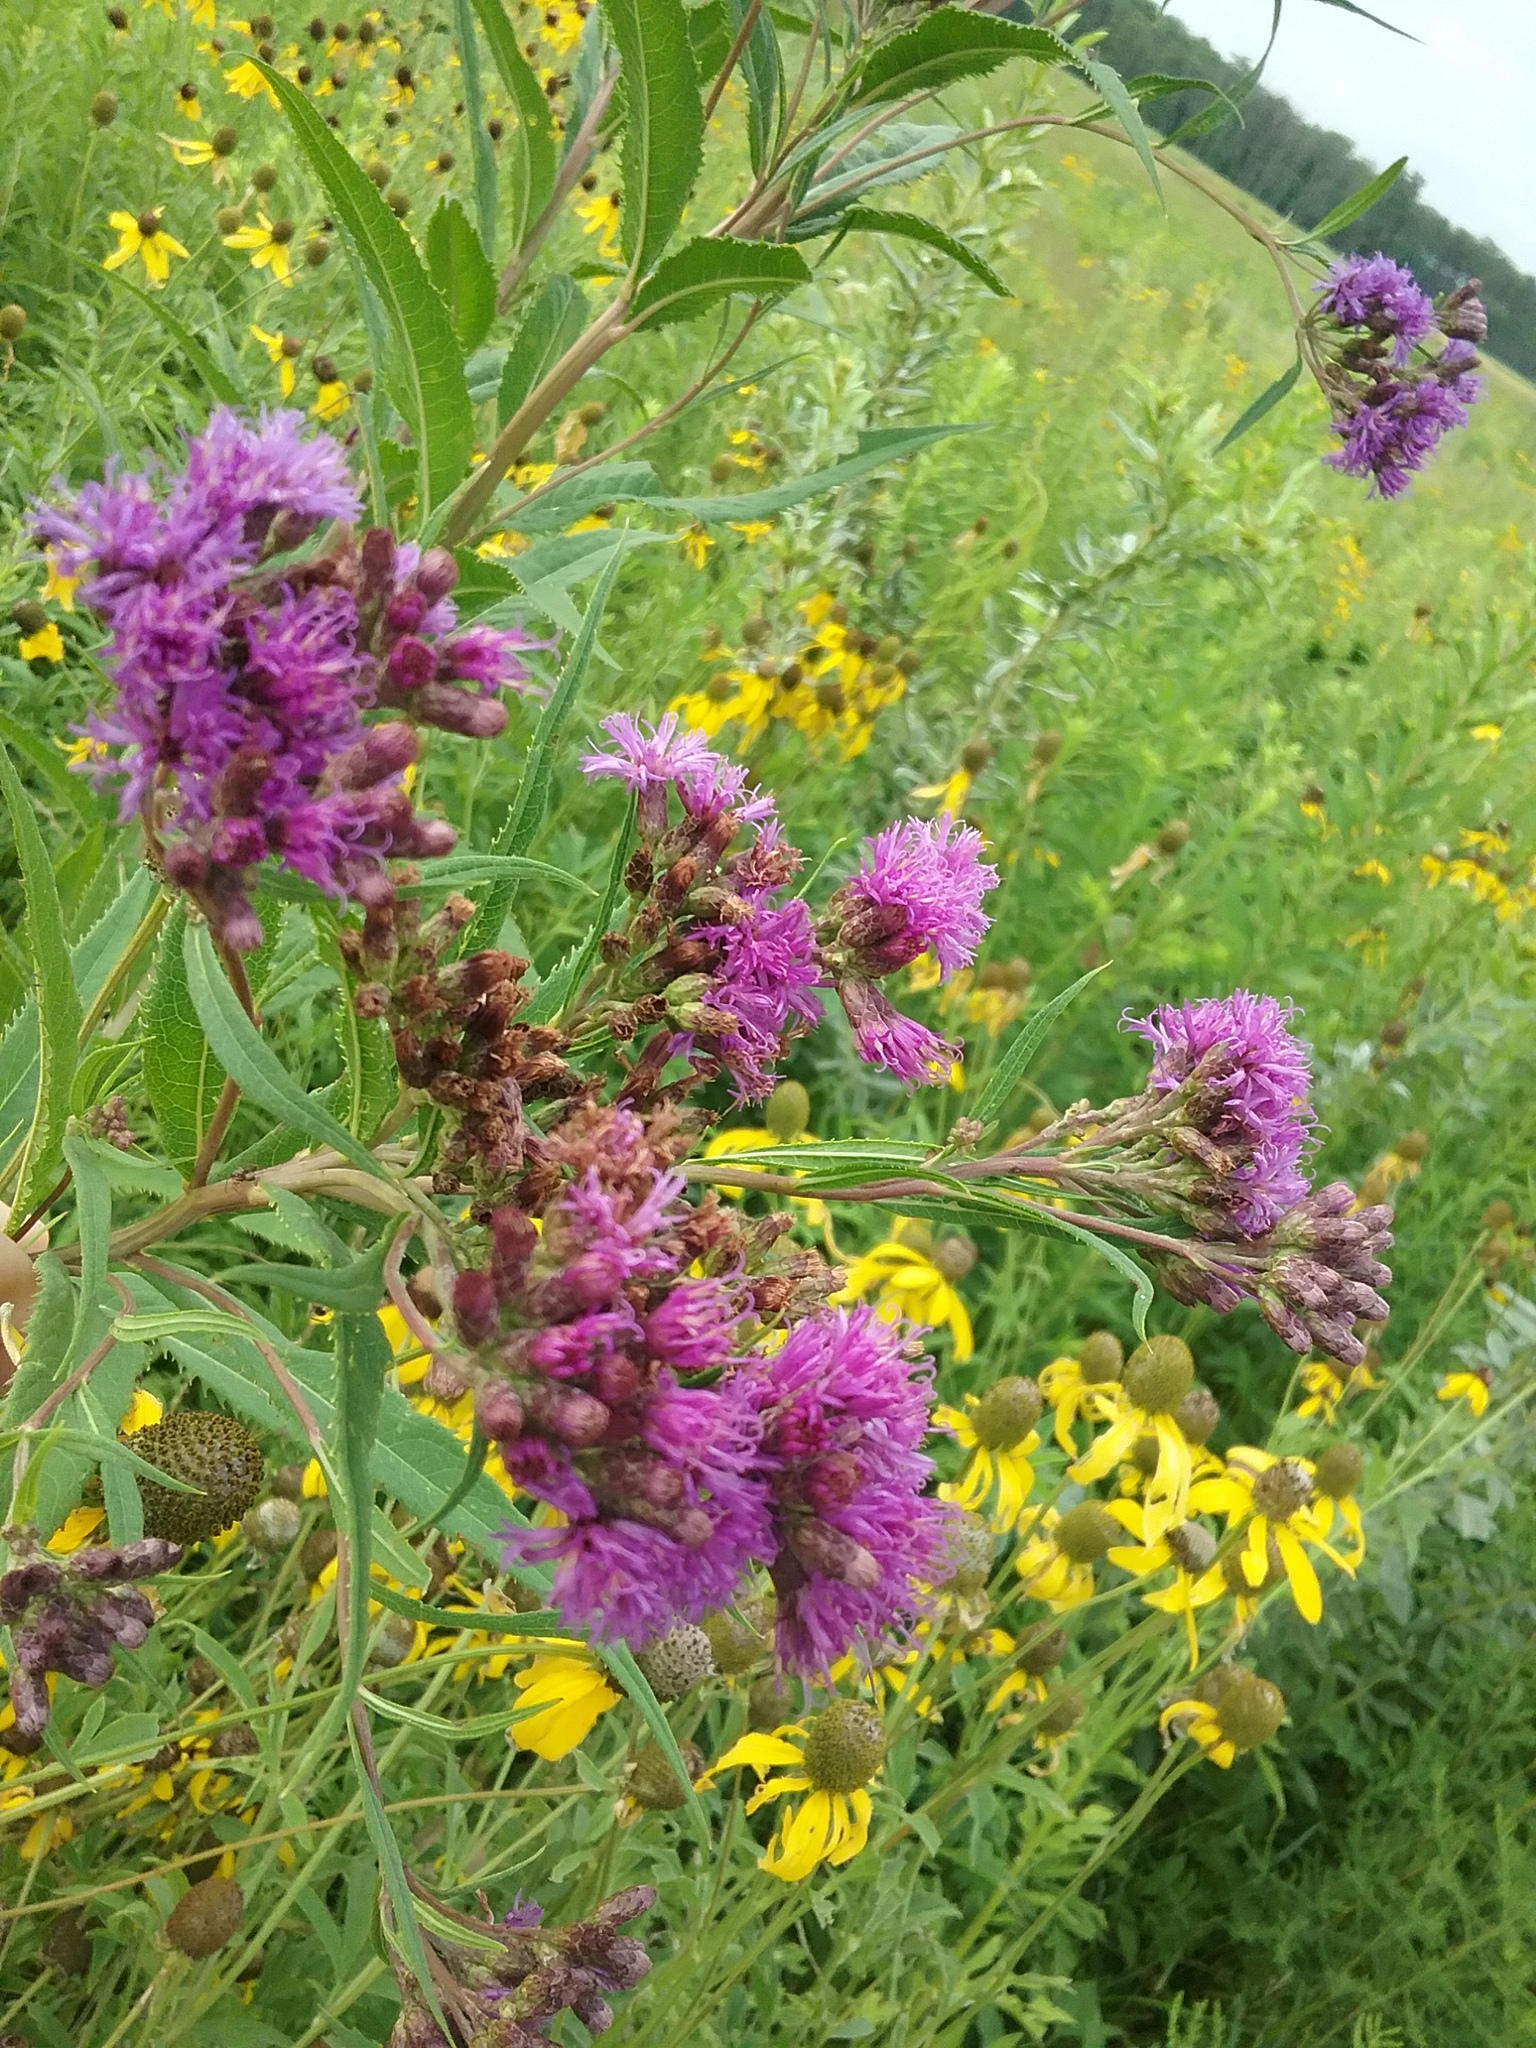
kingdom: Plantae
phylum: Tracheophyta
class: Magnoliopsida
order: Asterales
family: Asteraceae
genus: Vernonia
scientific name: Vernonia fasciculata
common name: Fascicled ironweed
